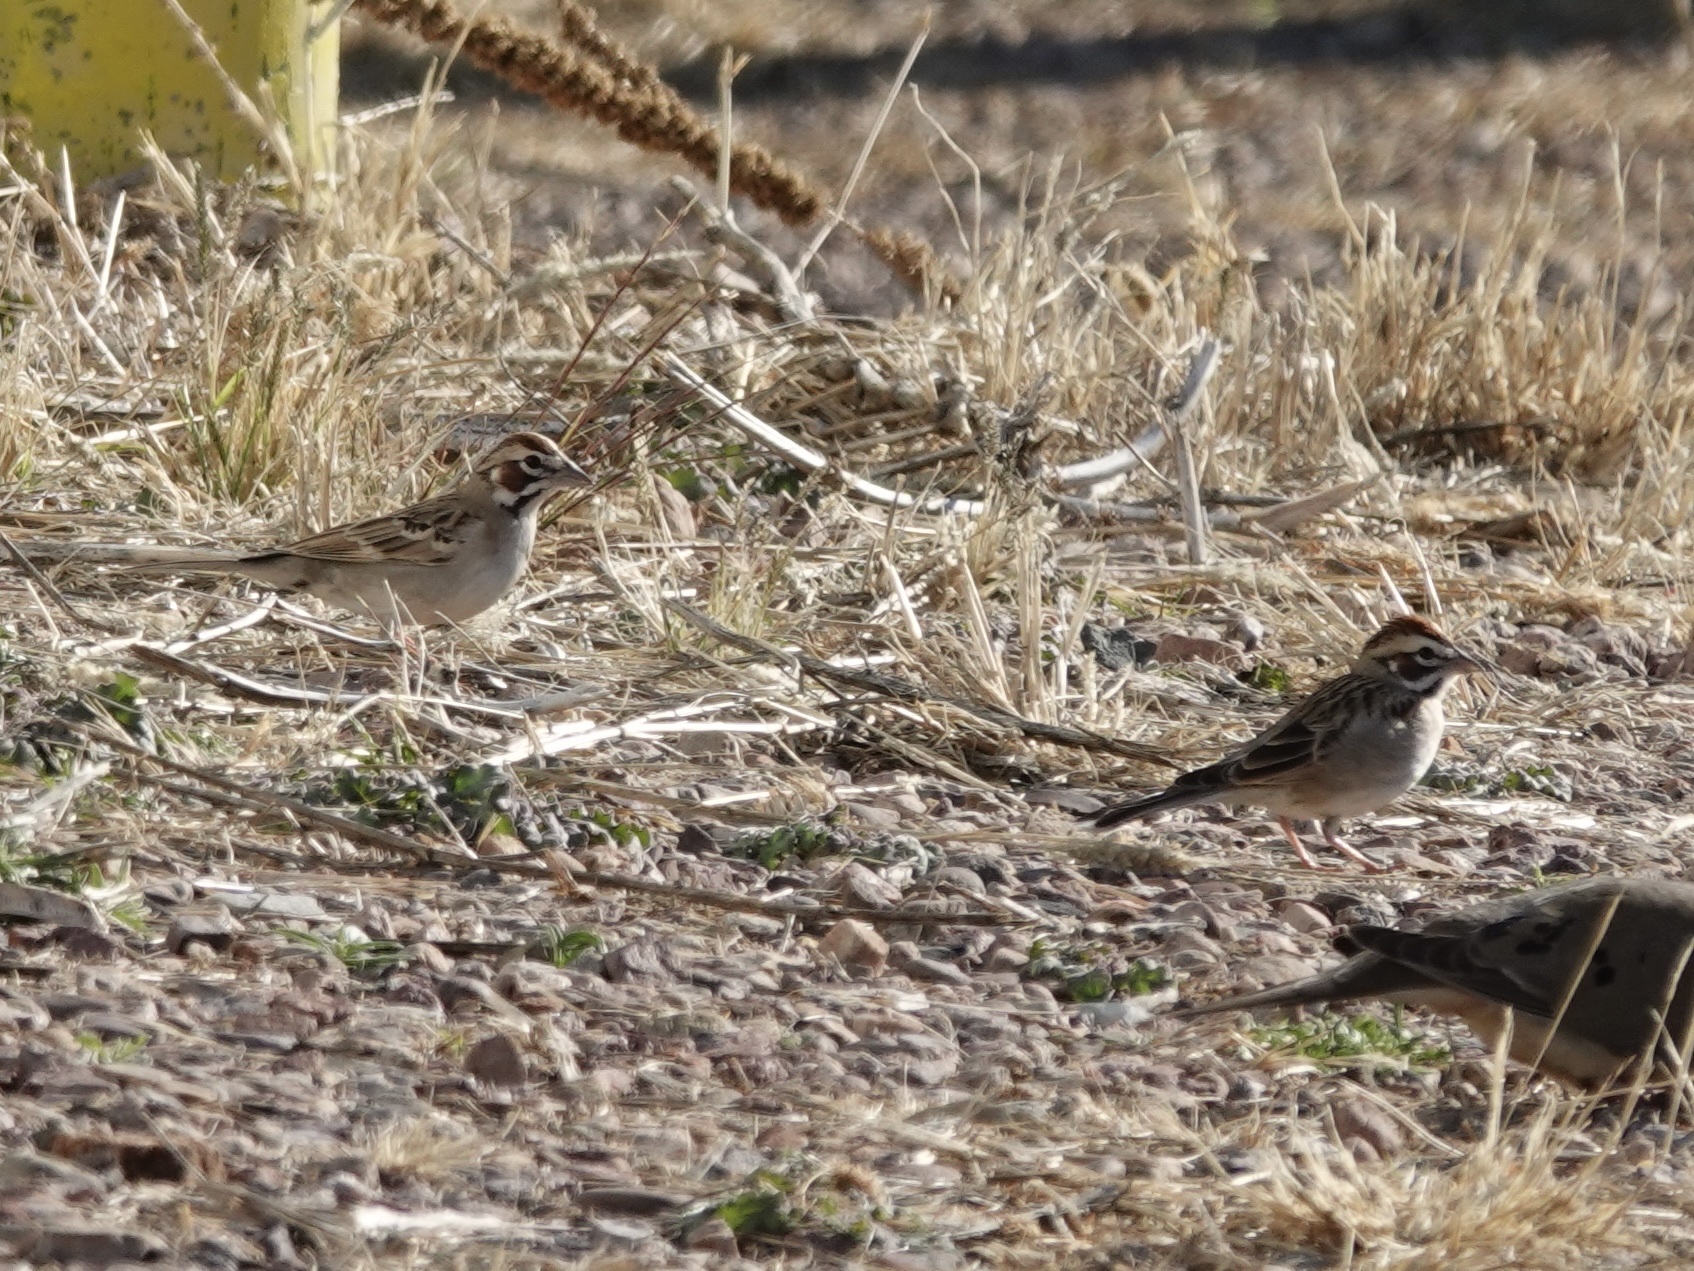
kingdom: Animalia
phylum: Chordata
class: Aves
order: Passeriformes
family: Passerellidae
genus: Chondestes
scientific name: Chondestes grammacus
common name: Lark sparrow
